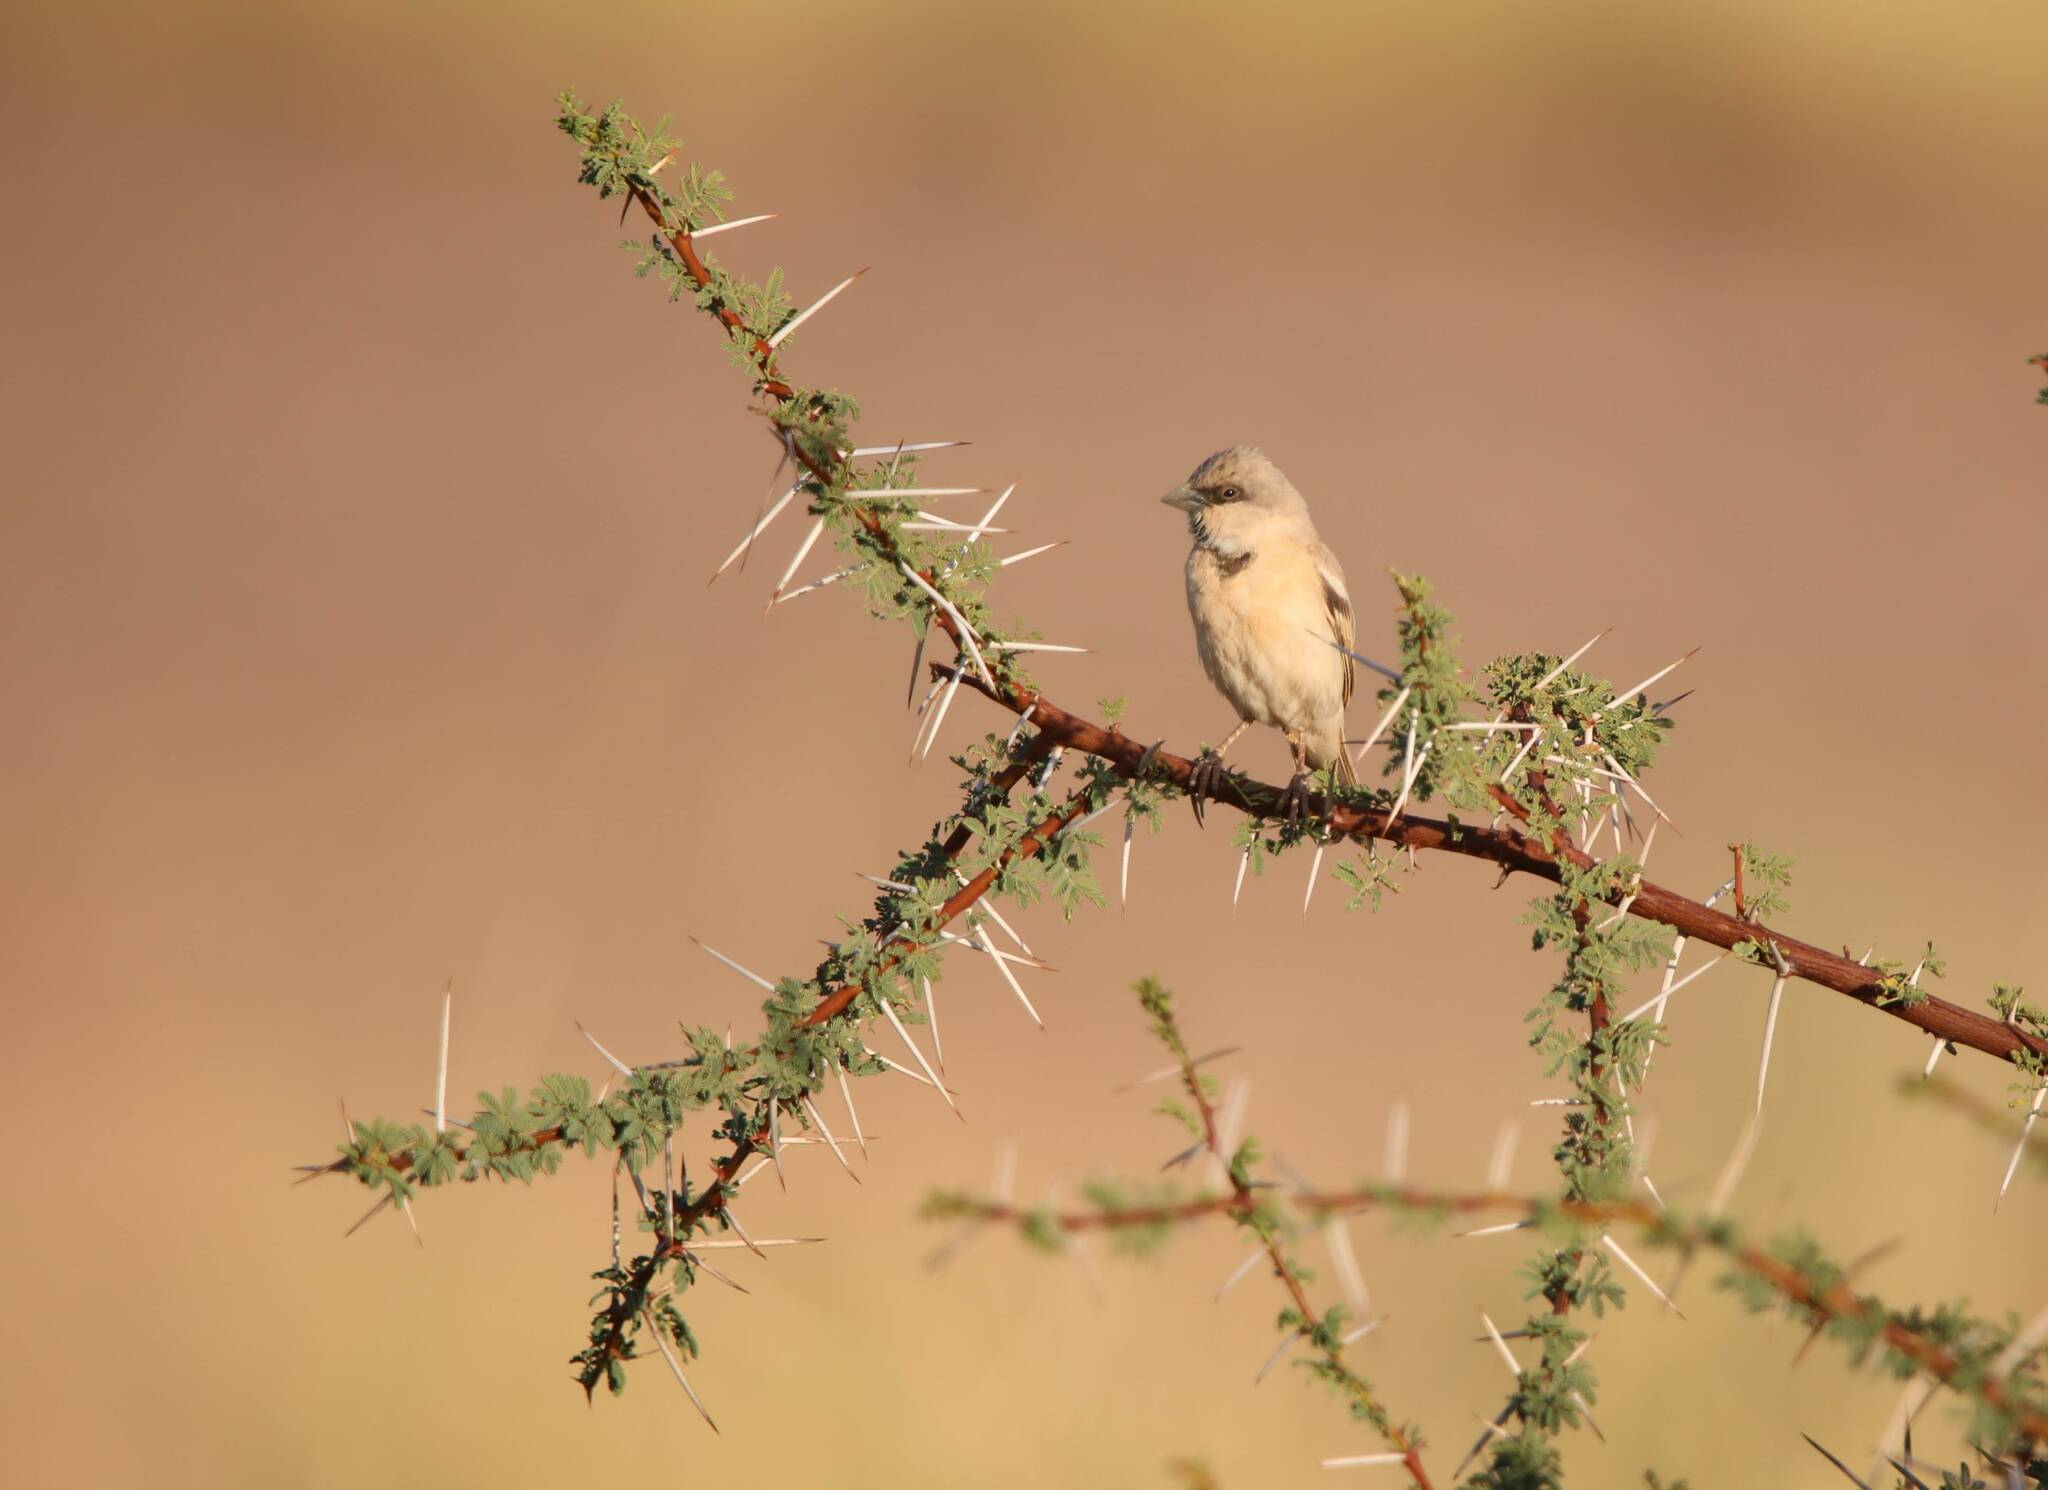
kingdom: Animalia
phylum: Chordata
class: Aves
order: Passeriformes
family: Passeridae
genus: Passer
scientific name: Passer simplex
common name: Desert sparrow
